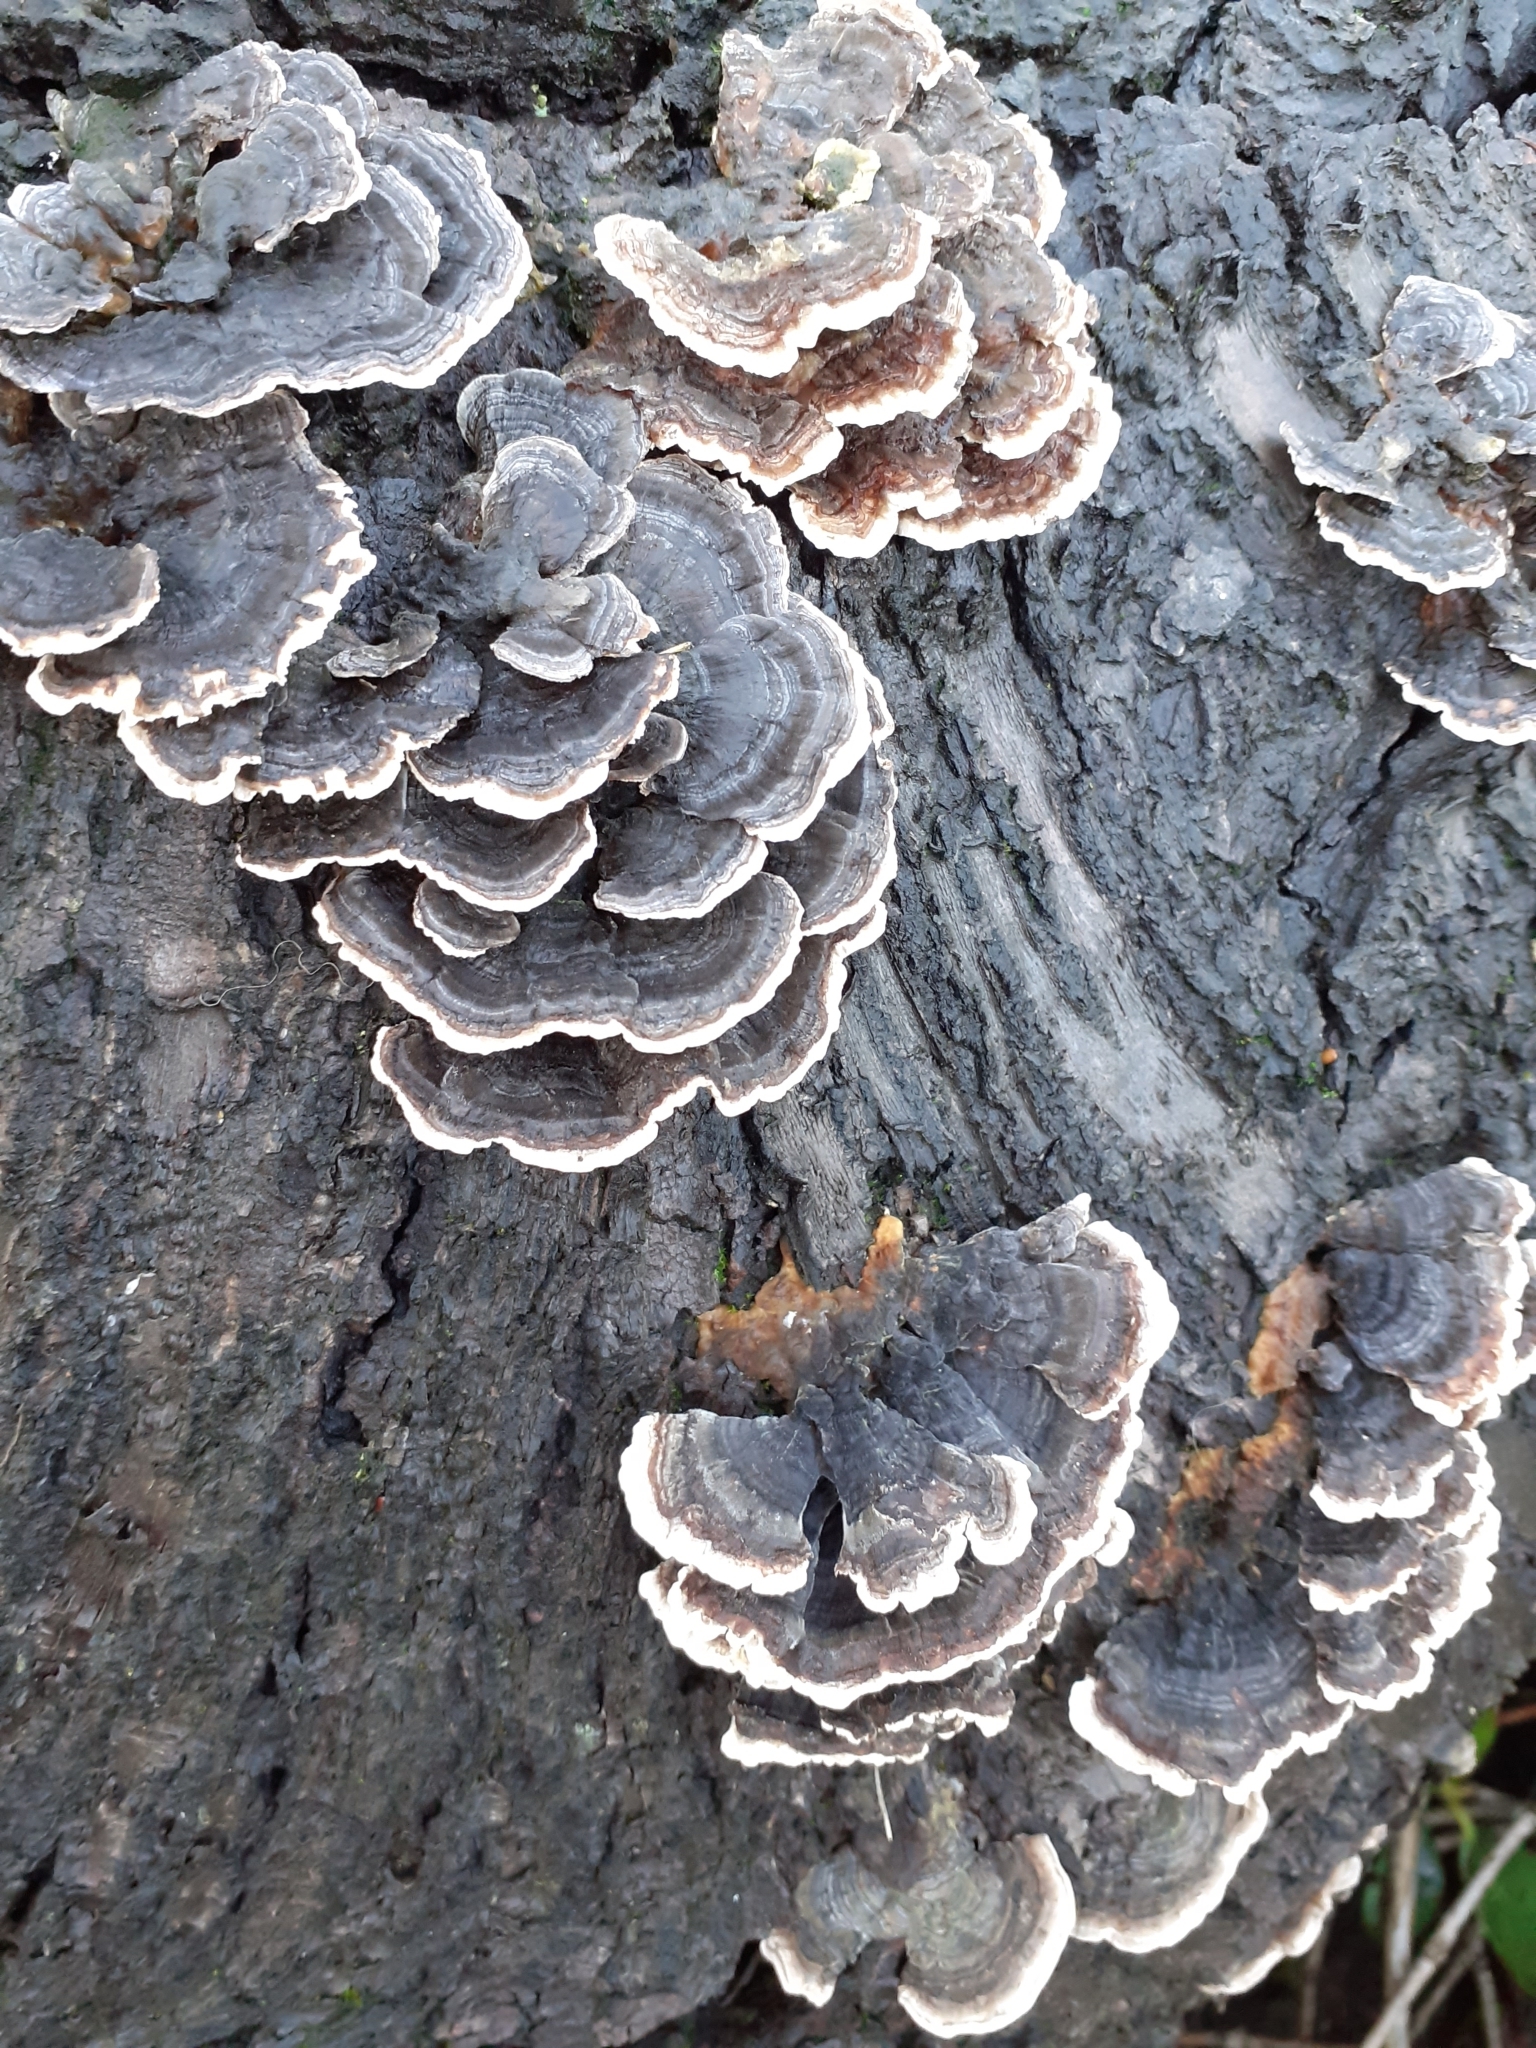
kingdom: Fungi
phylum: Basidiomycota
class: Agaricomycetes
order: Polyporales
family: Polyporaceae
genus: Trametes
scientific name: Trametes versicolor
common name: Turkeytail
